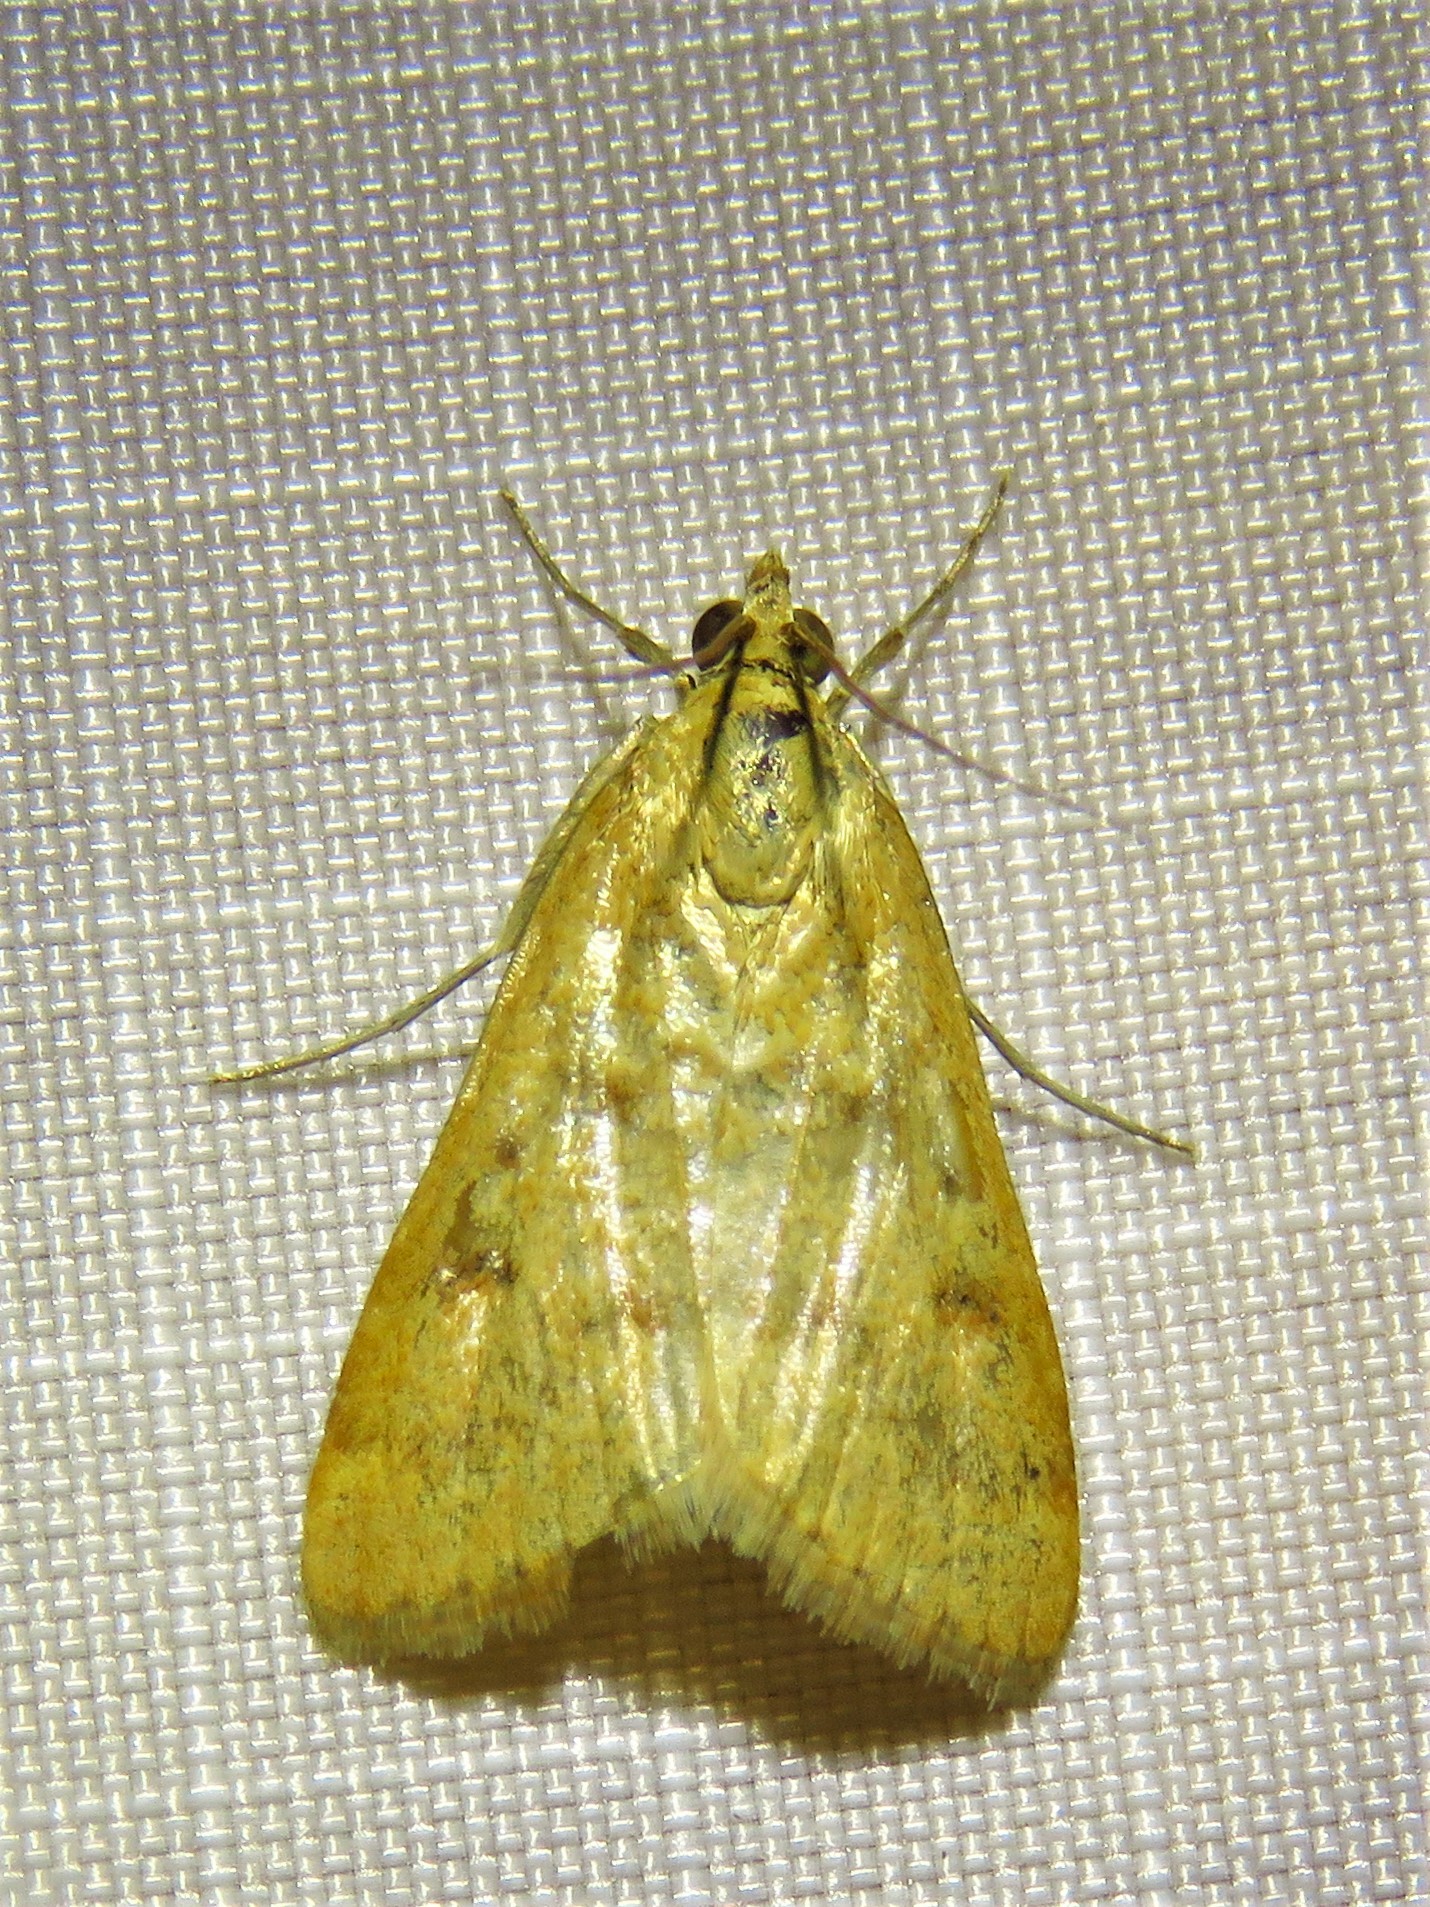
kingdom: Animalia
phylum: Arthropoda
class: Insecta
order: Lepidoptera
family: Crambidae
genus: Achyra
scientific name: Achyra rantalis
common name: Garden webworm
